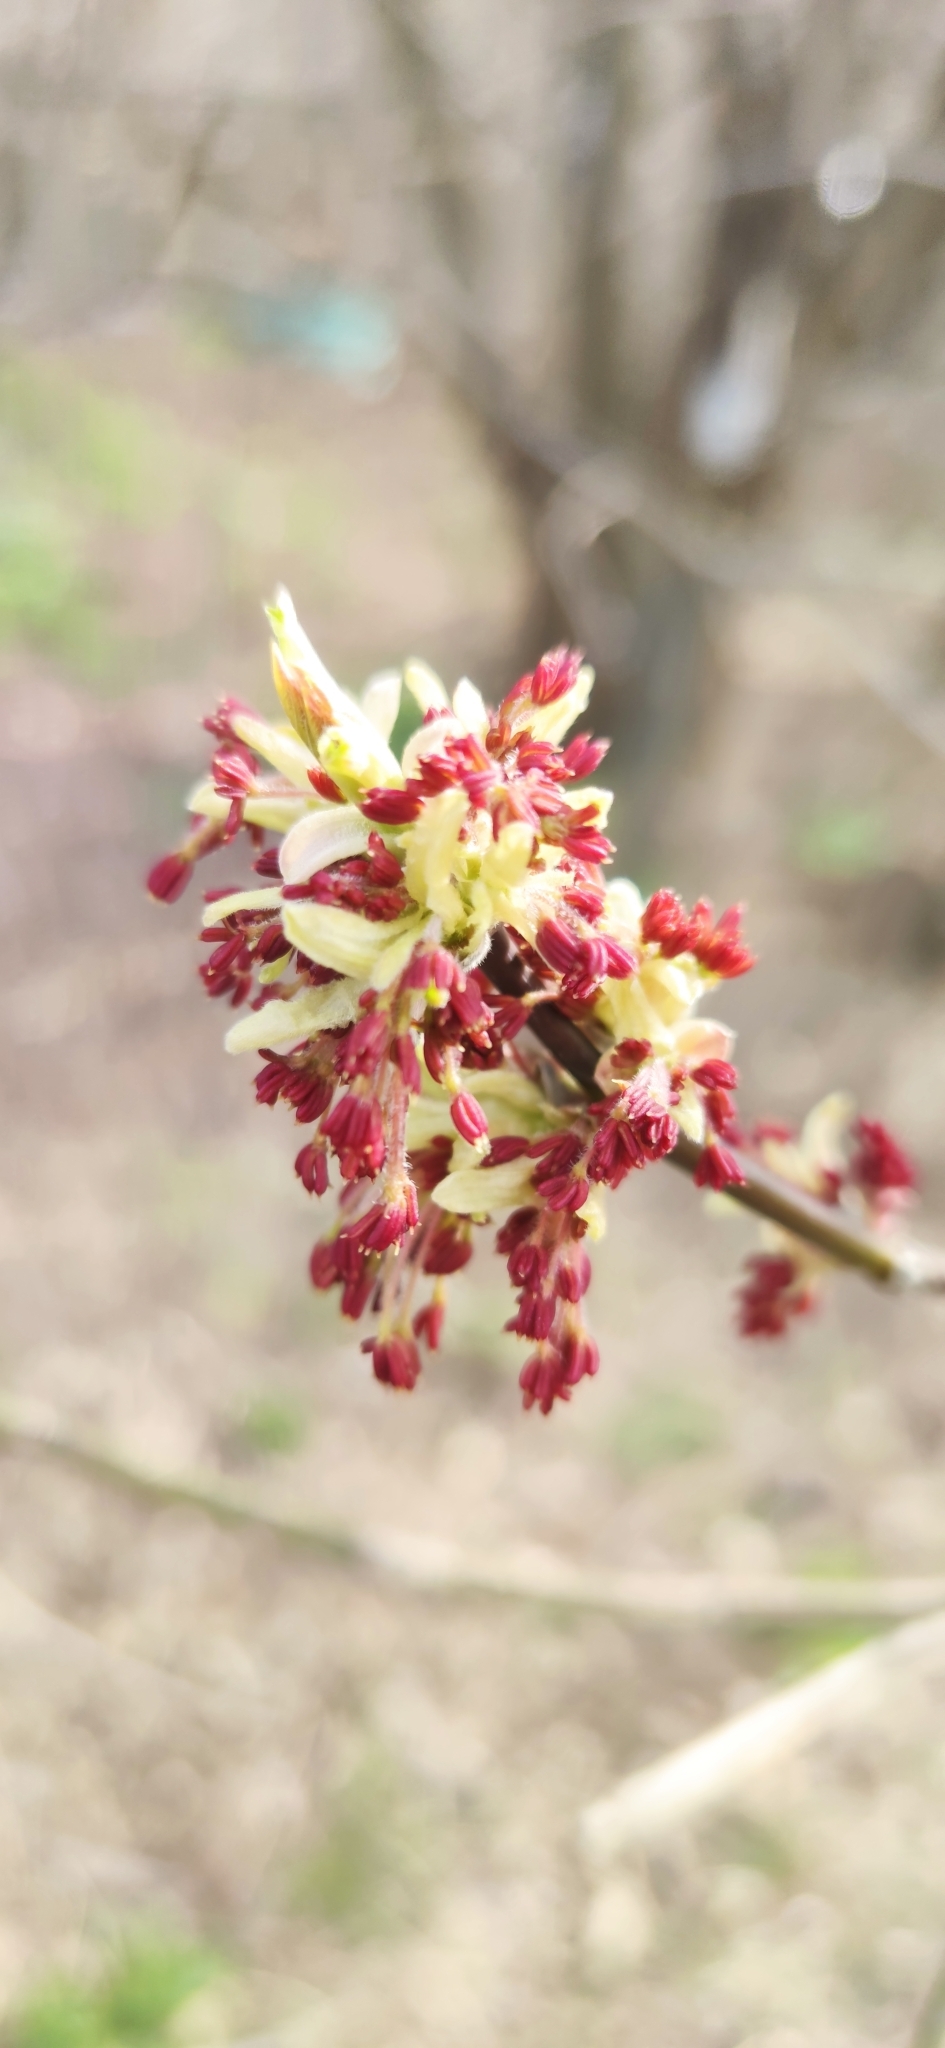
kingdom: Plantae
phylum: Tracheophyta
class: Magnoliopsida
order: Sapindales
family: Sapindaceae
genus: Acer
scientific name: Acer negundo
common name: Ashleaf maple
